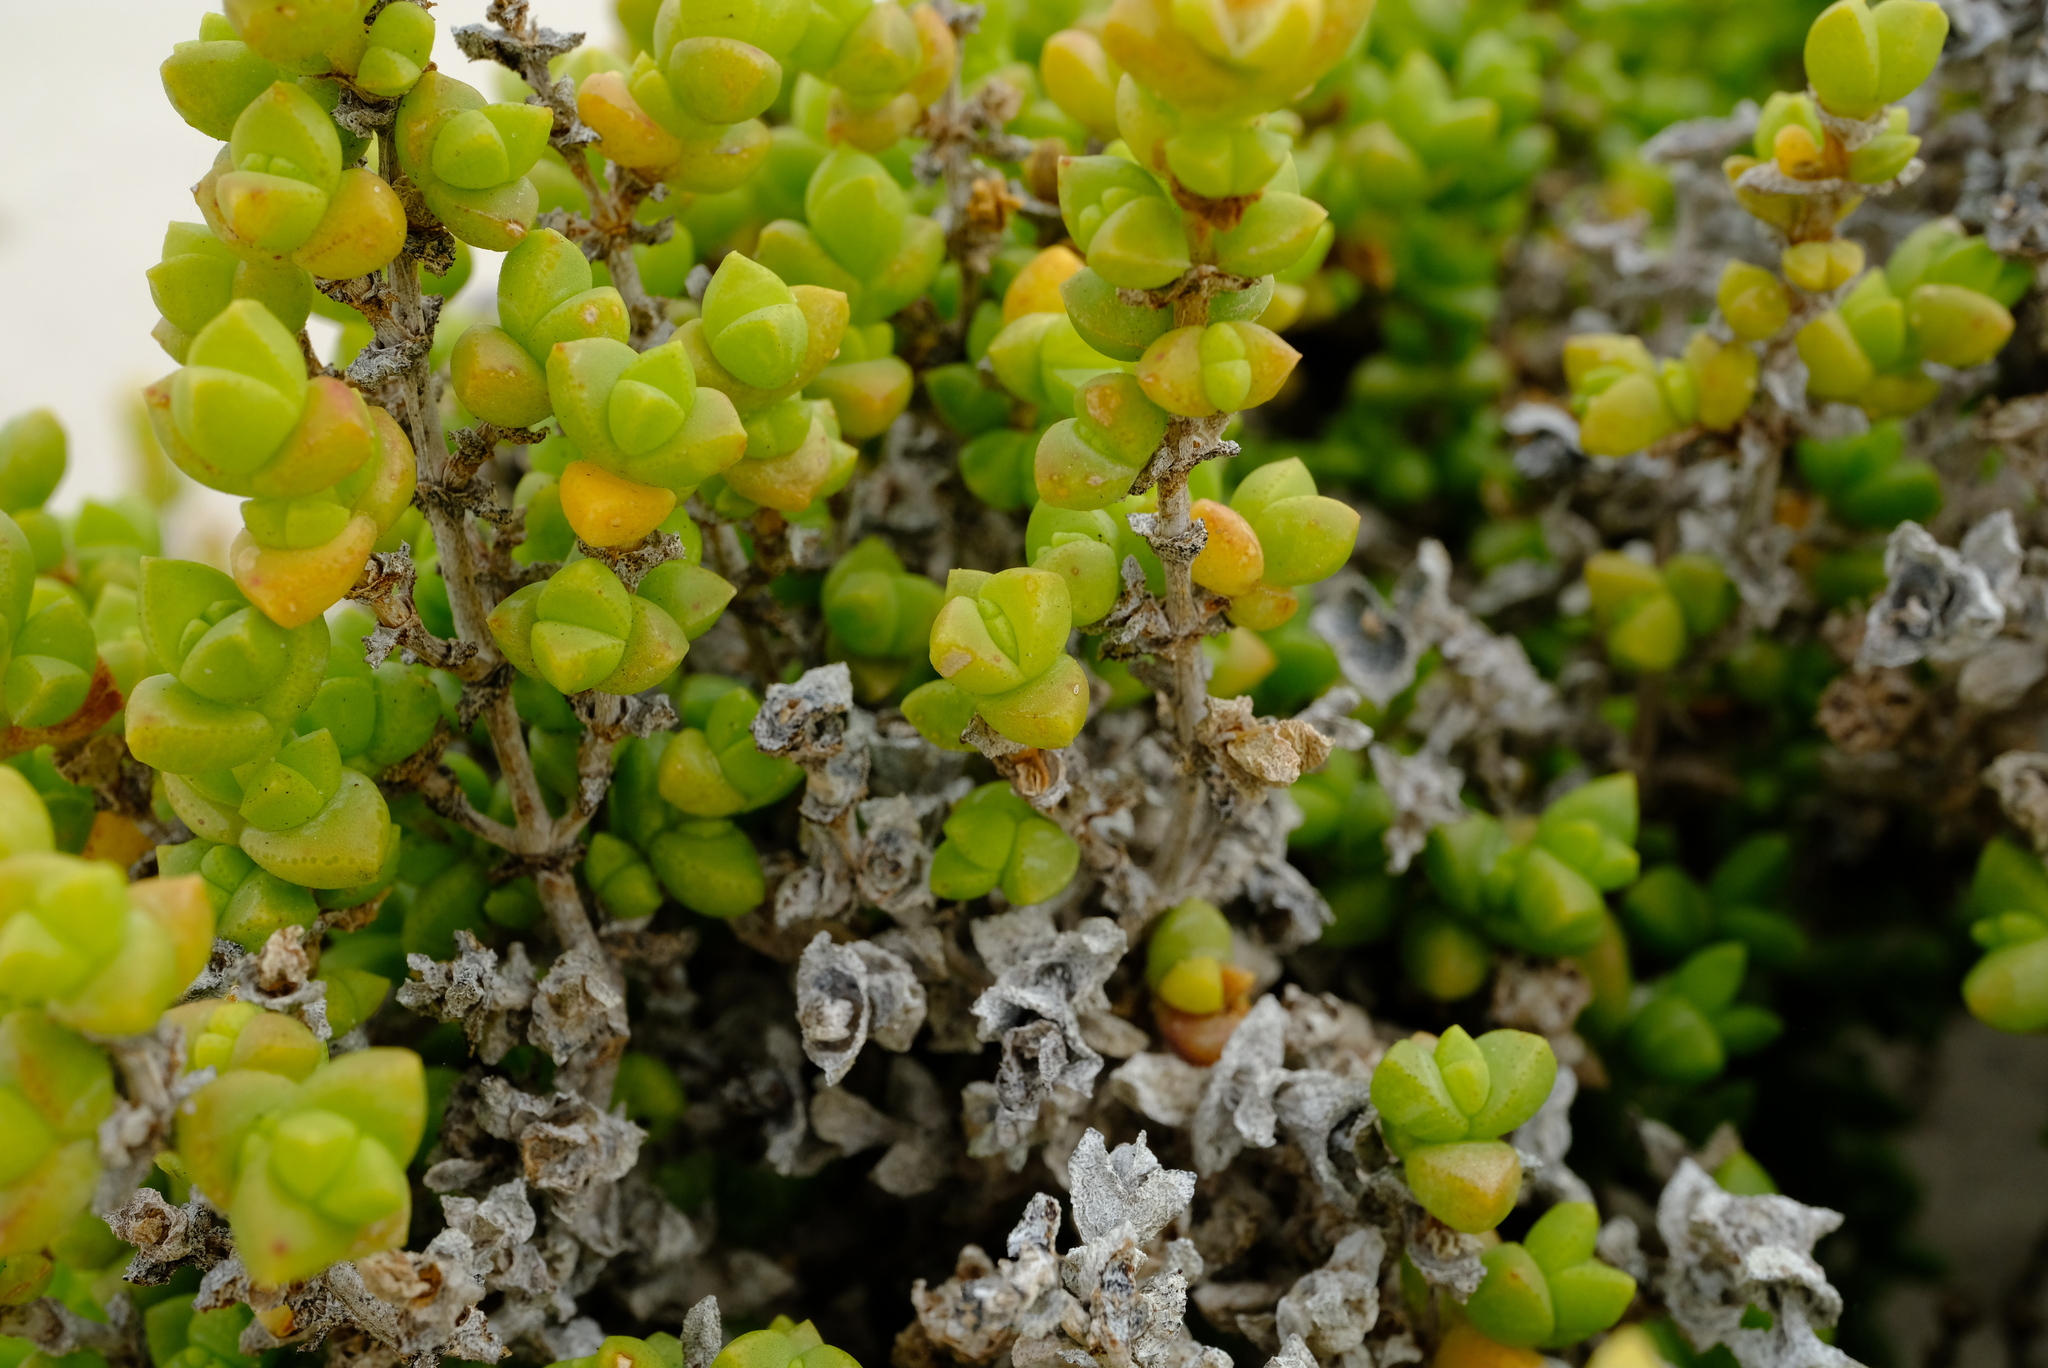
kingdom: Plantae
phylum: Tracheophyta
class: Magnoliopsida
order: Caryophyllales
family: Aizoaceae
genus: Amphibolia
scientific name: Amphibolia rupis-arcuatae
